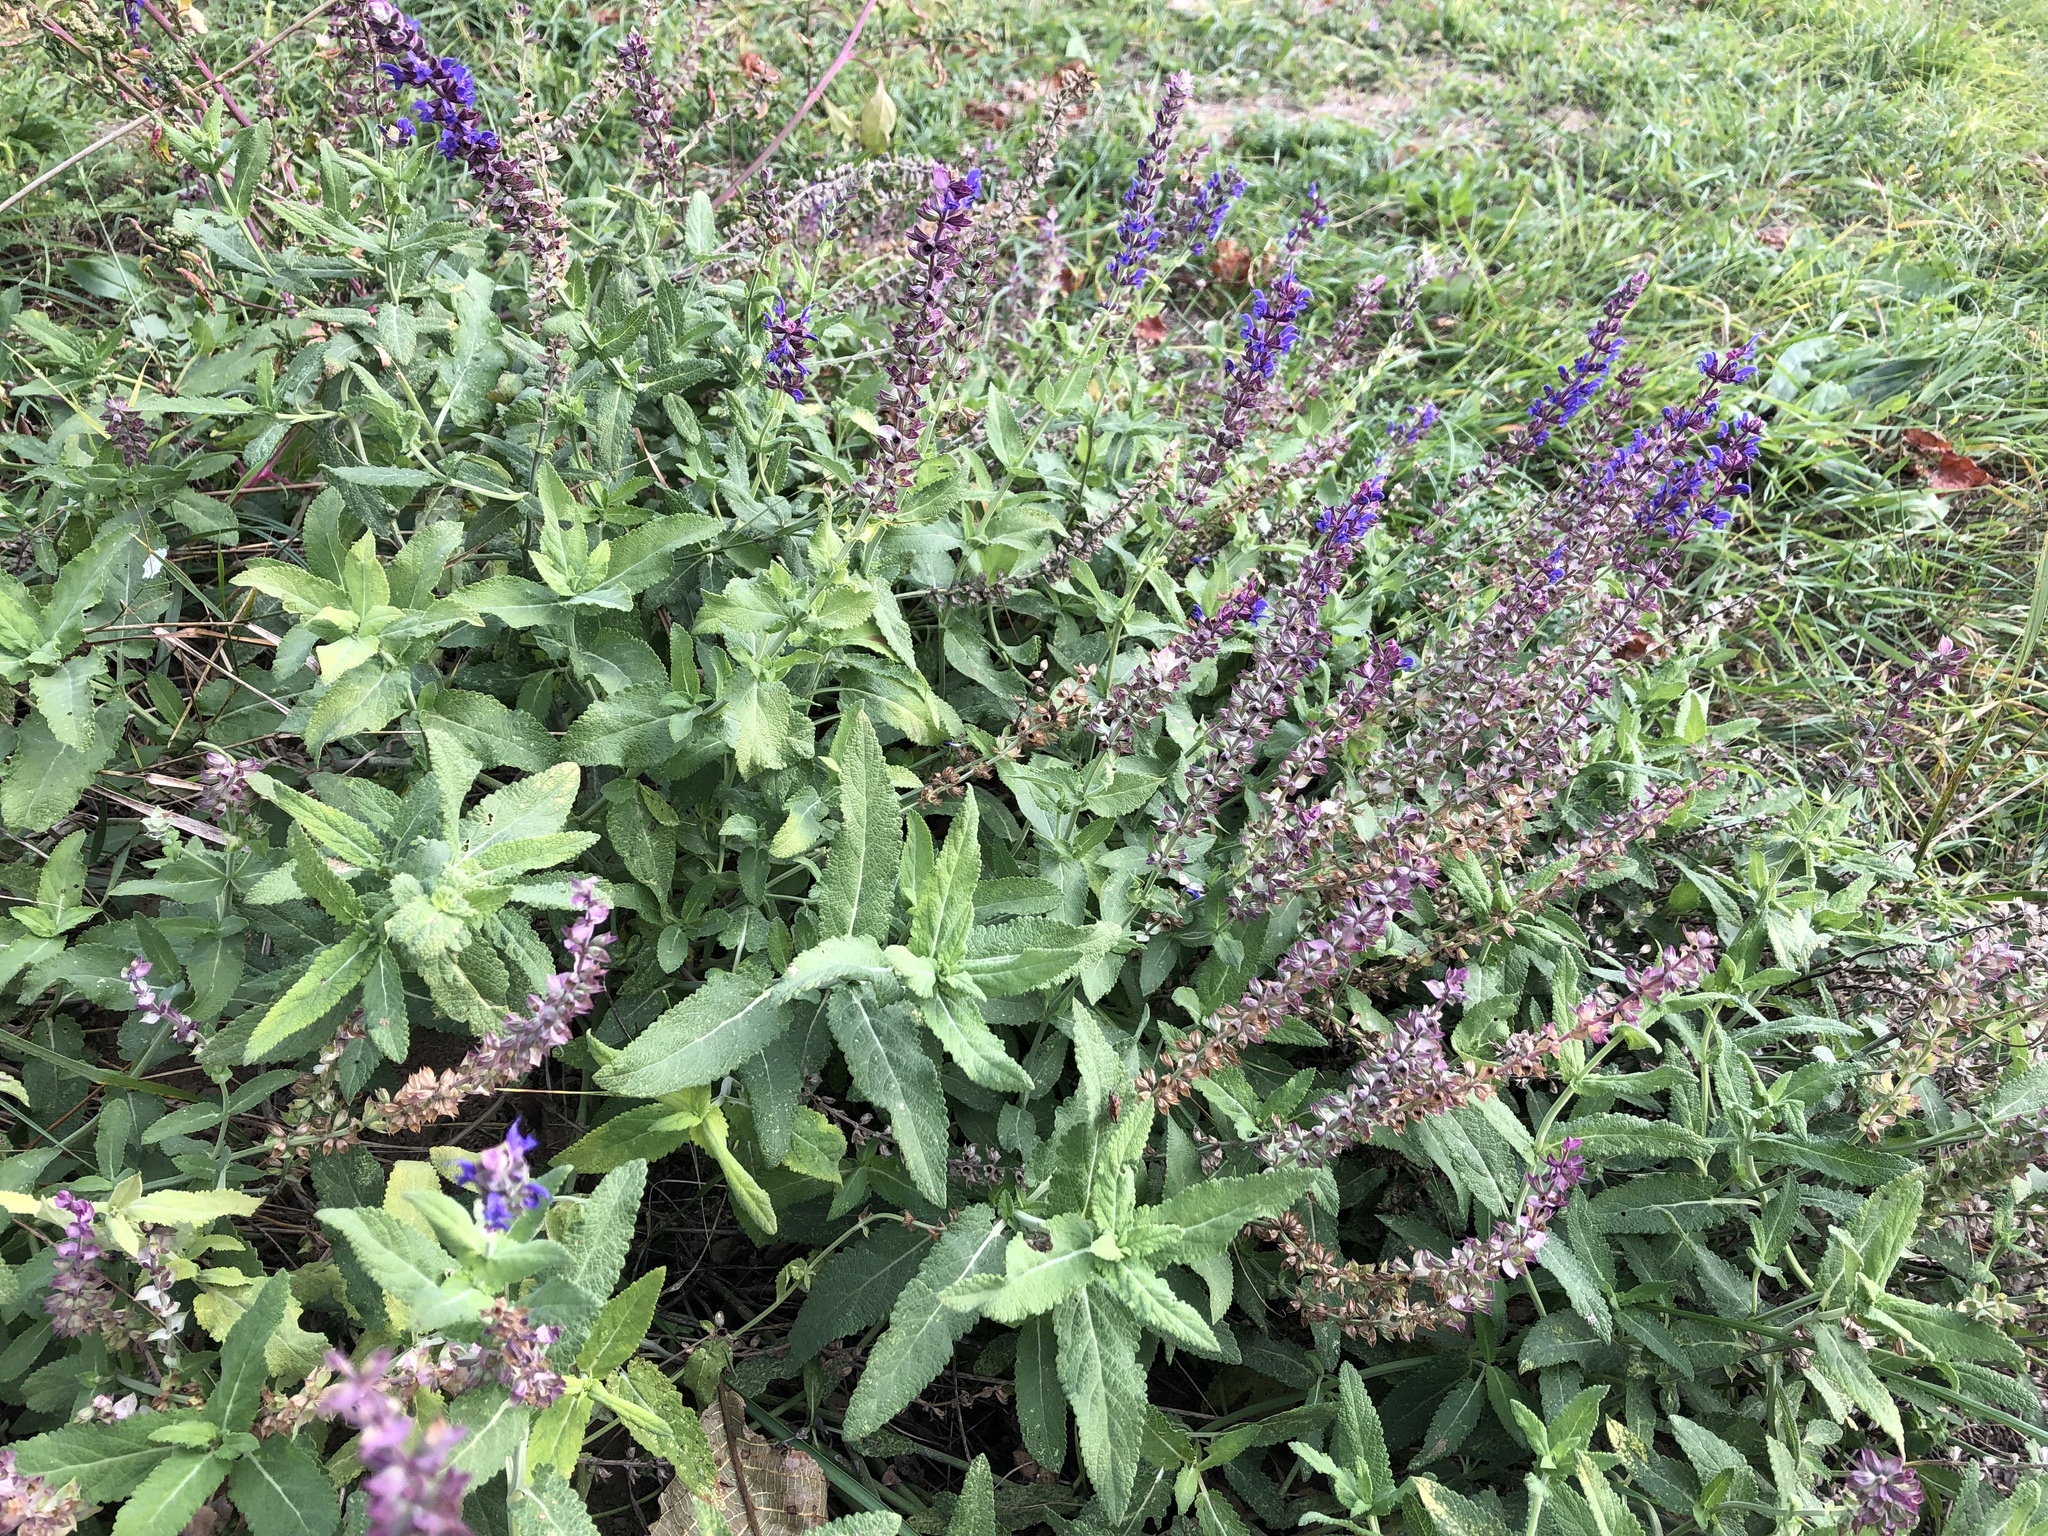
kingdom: Plantae
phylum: Tracheophyta
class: Magnoliopsida
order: Lamiales
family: Lamiaceae
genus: Salvia
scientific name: Salvia nemorosa
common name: Balkan clary
